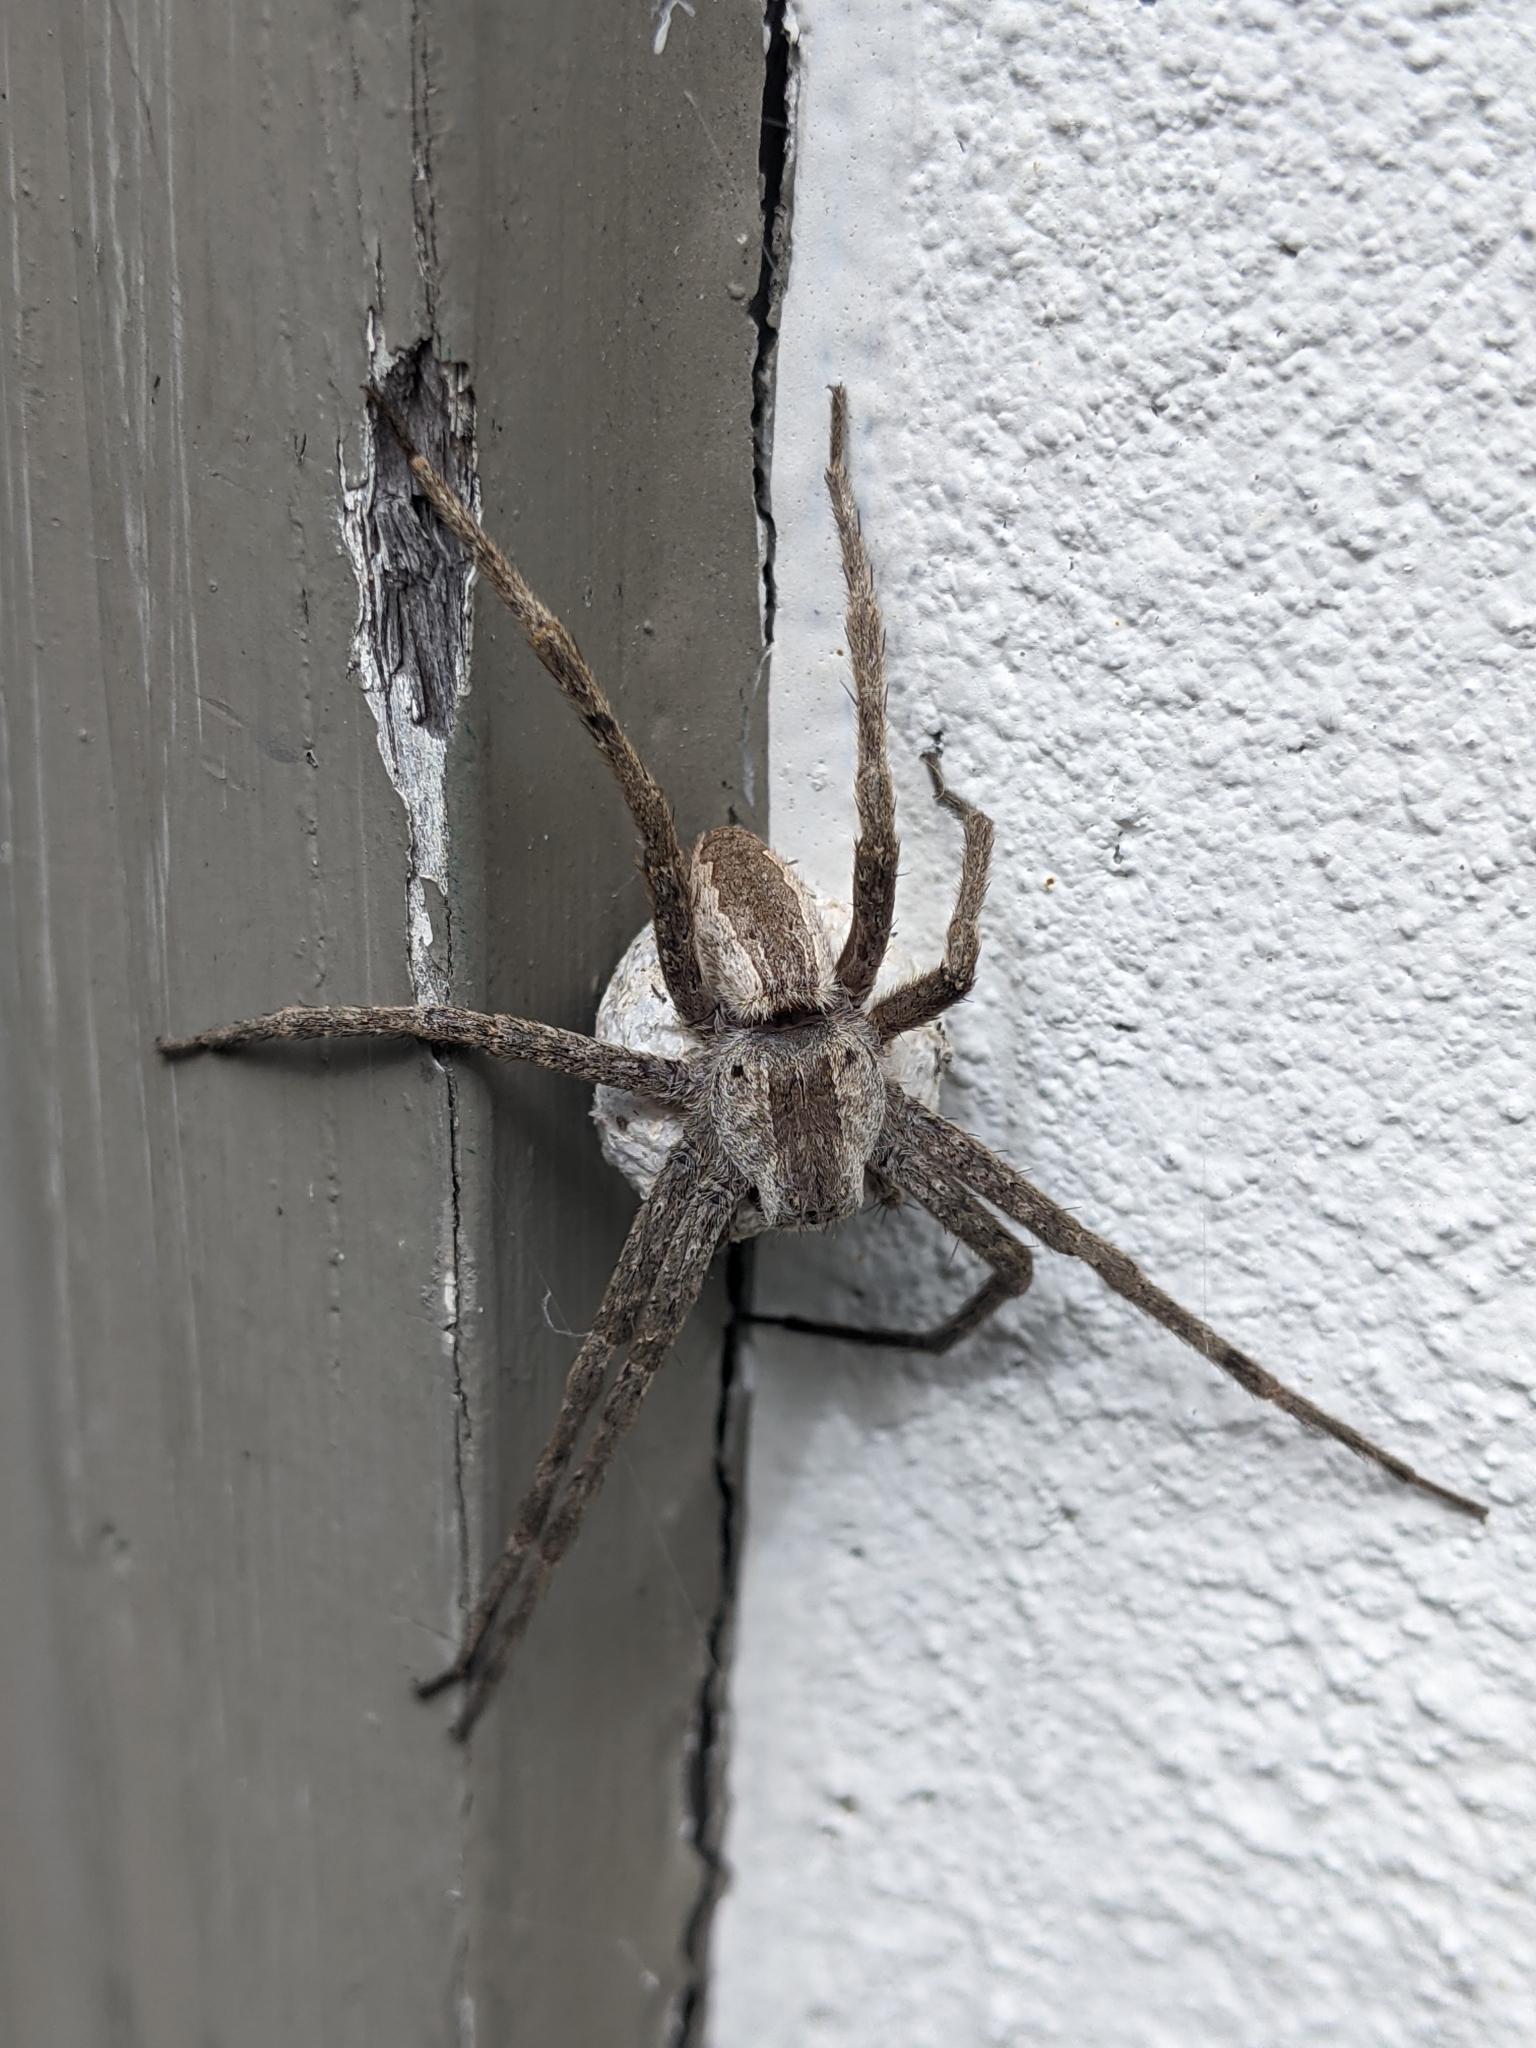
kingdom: Animalia
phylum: Arthropoda
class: Arachnida
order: Araneae
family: Pisauridae
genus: Pisaurina
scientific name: Pisaurina mira
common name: American nursery web spider
